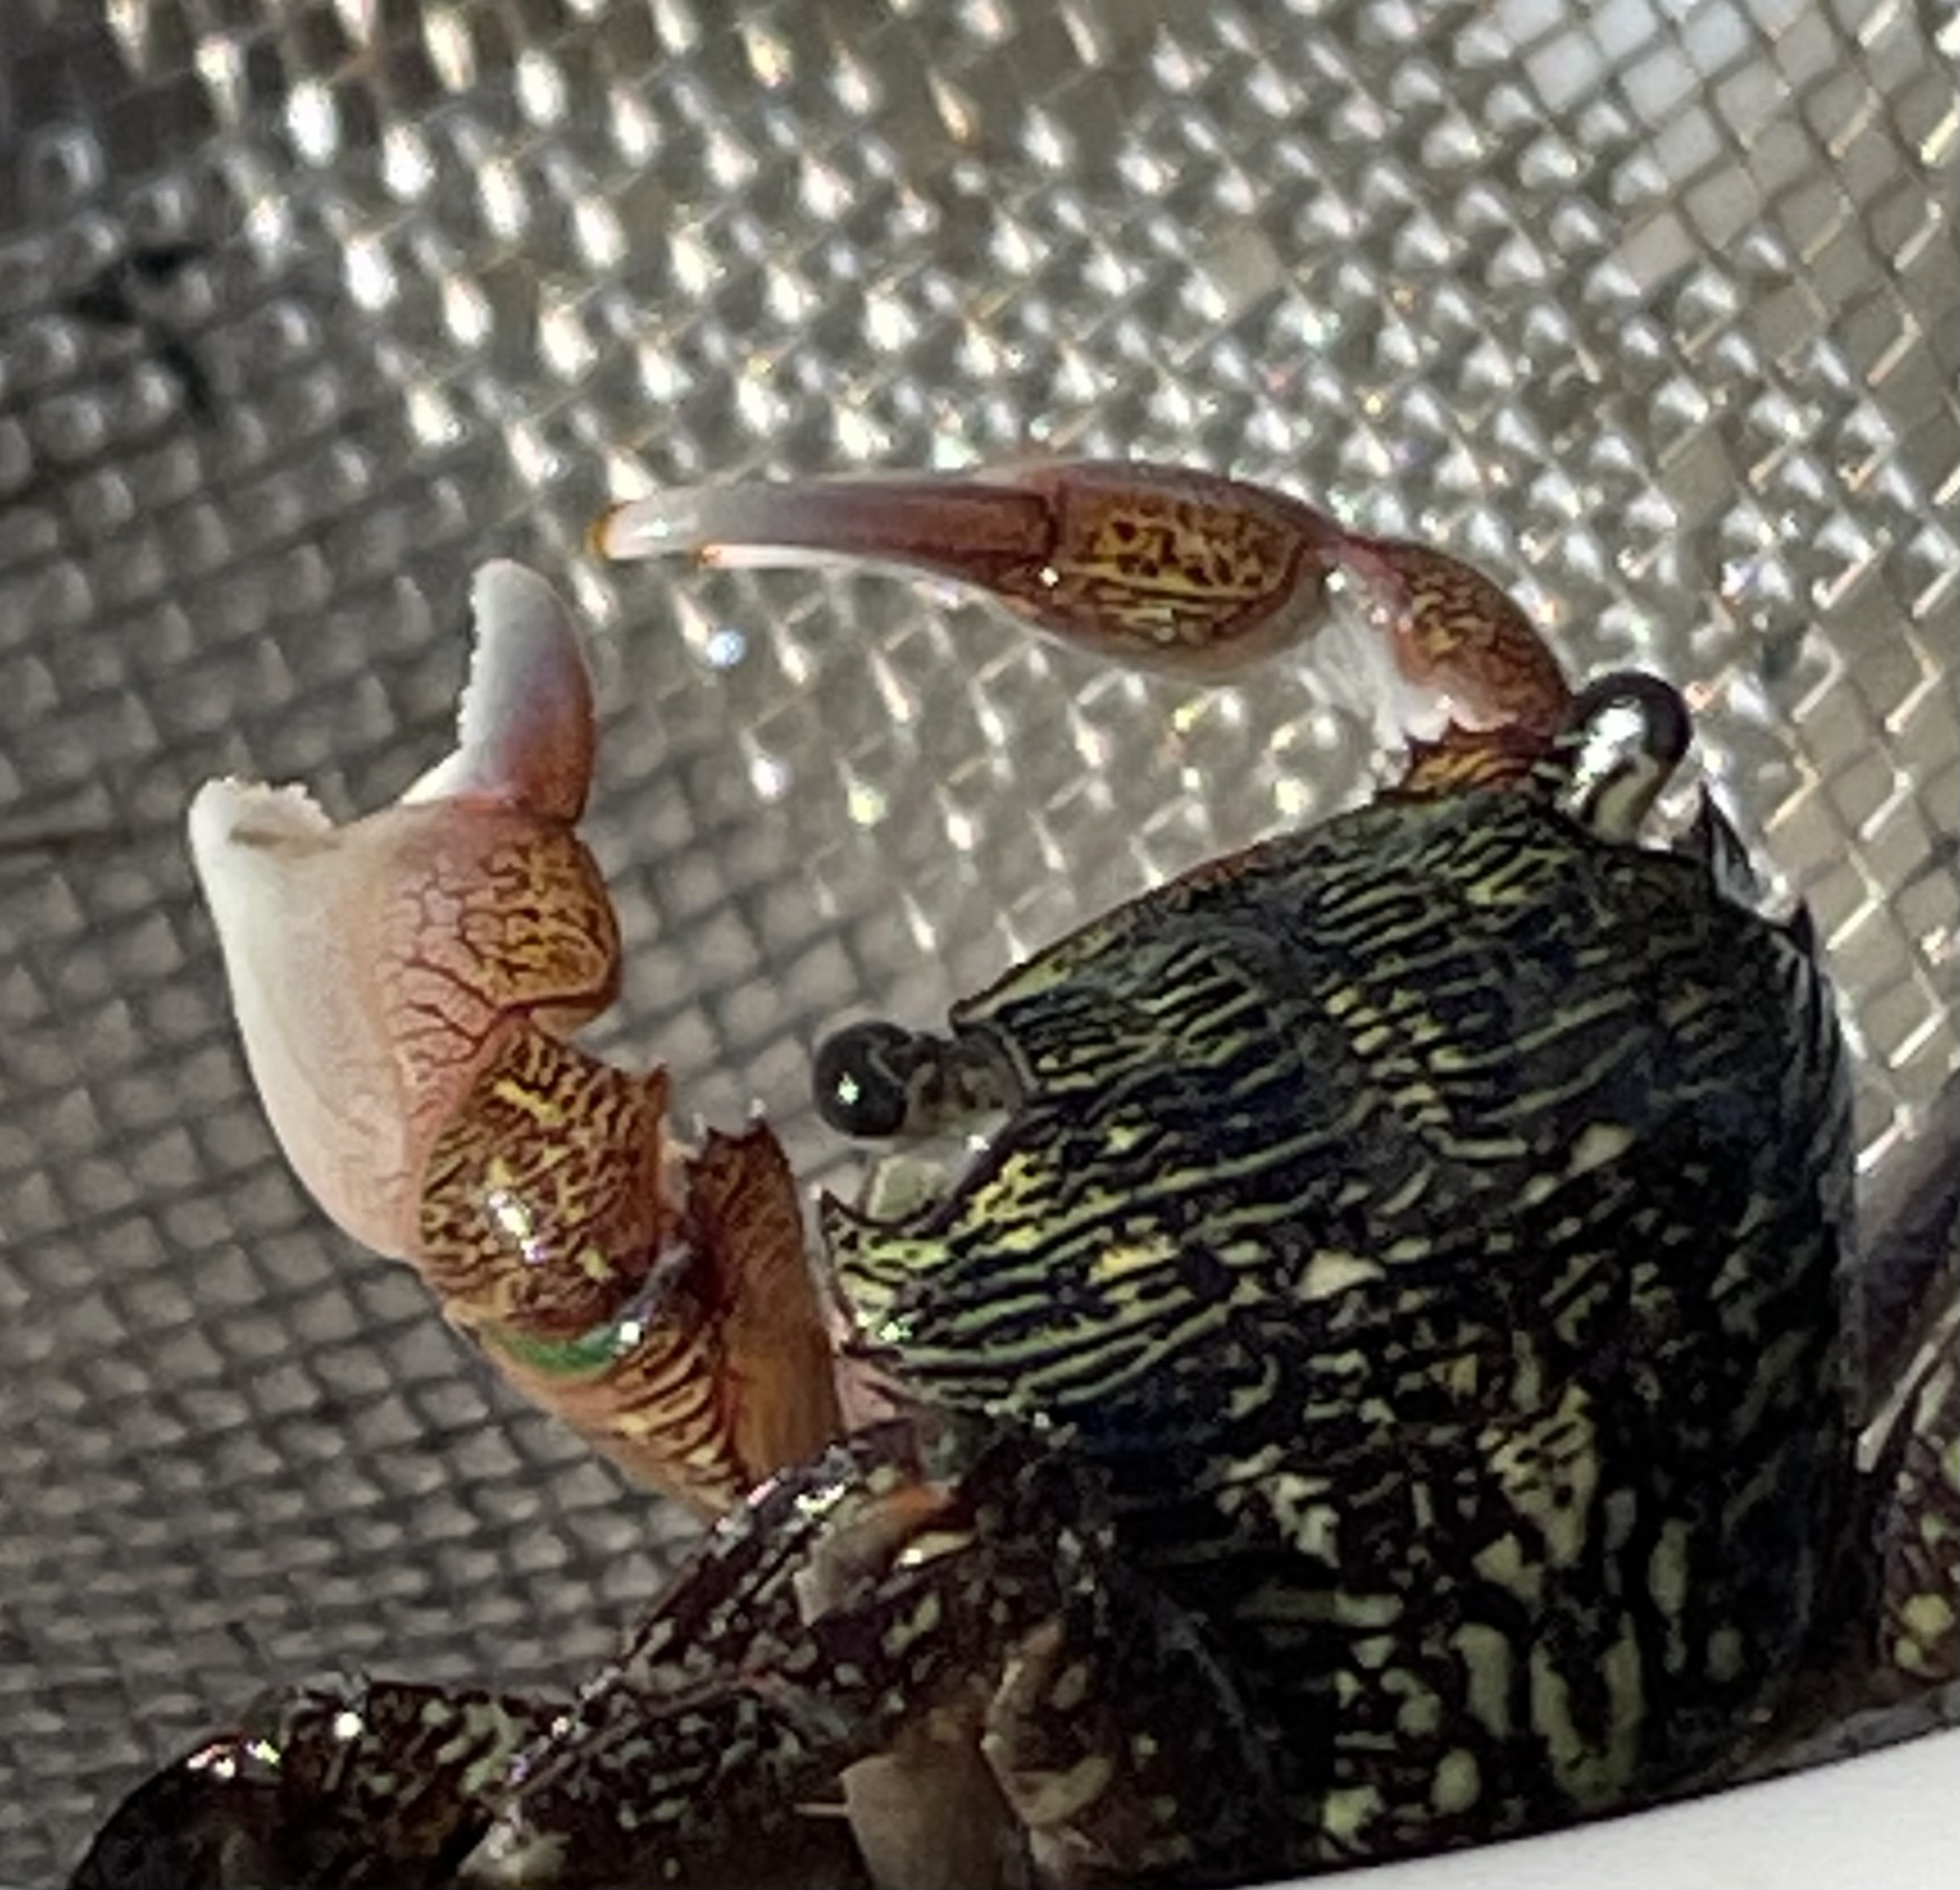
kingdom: Animalia
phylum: Arthropoda
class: Malacostraca
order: Decapoda
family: Grapsidae
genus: Pachygrapsus
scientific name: Pachygrapsus crassipes
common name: Striped shore crab
